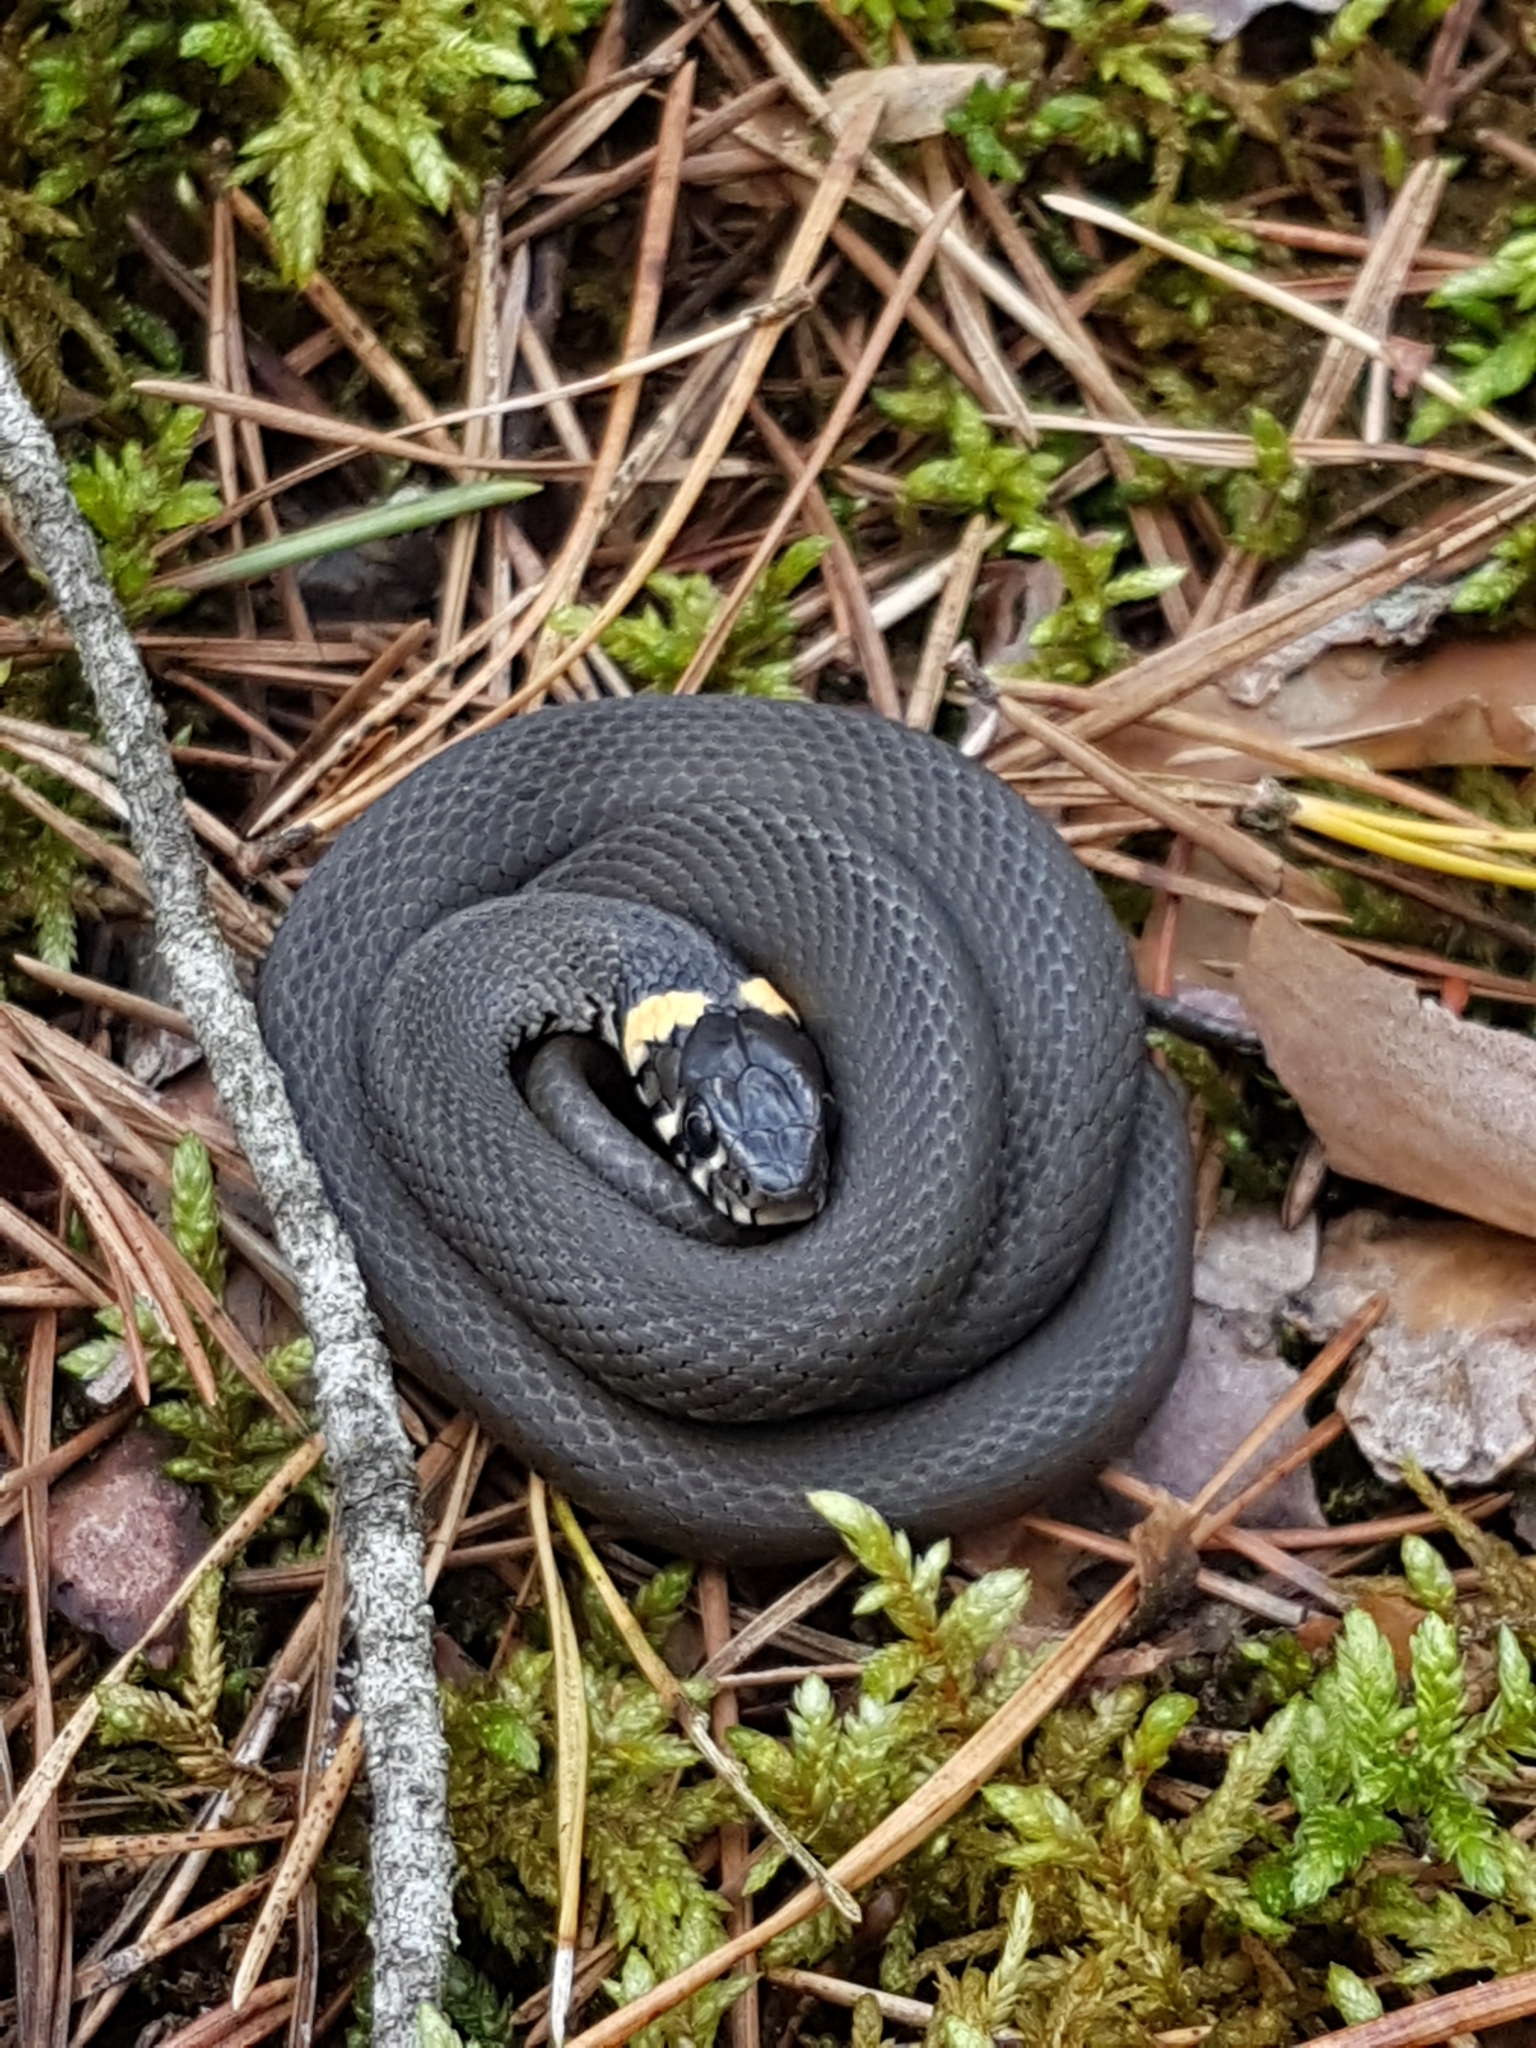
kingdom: Animalia
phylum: Chordata
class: Squamata
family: Colubridae
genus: Natrix
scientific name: Natrix natrix
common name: Grass snake
